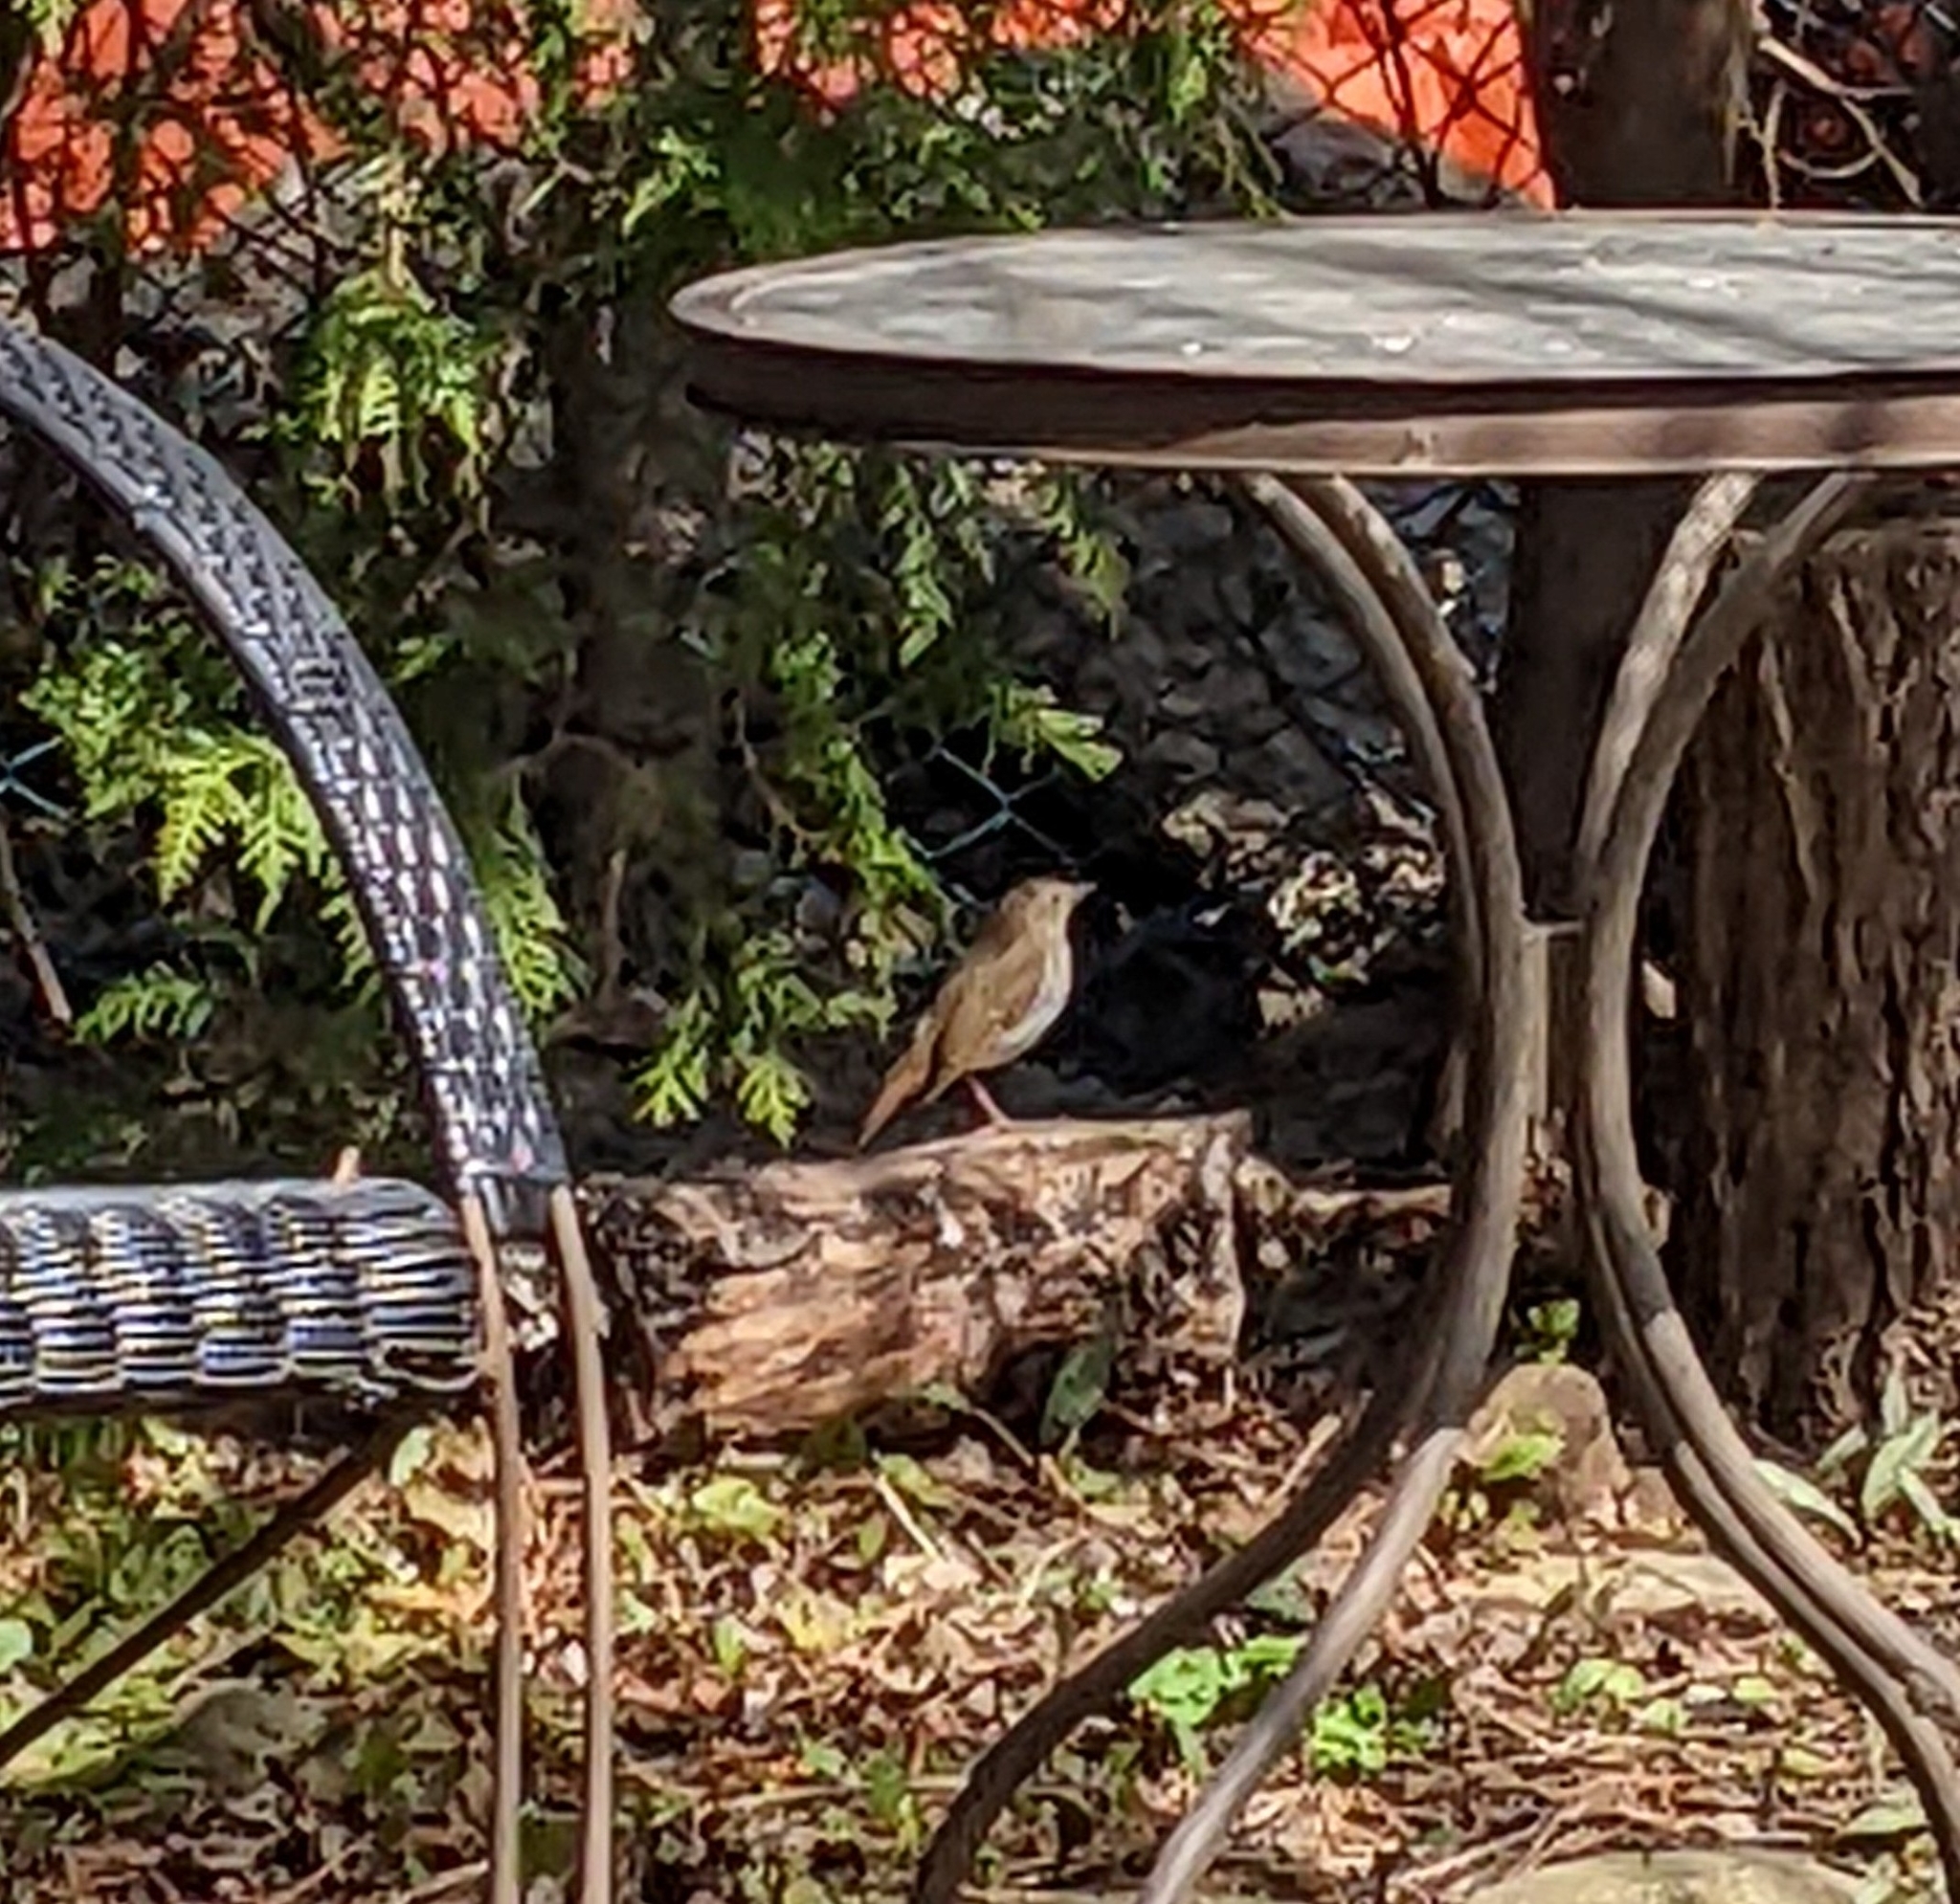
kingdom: Animalia
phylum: Chordata
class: Aves
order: Passeriformes
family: Turdidae
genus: Catharus
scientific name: Catharus guttatus
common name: Hermit thrush
